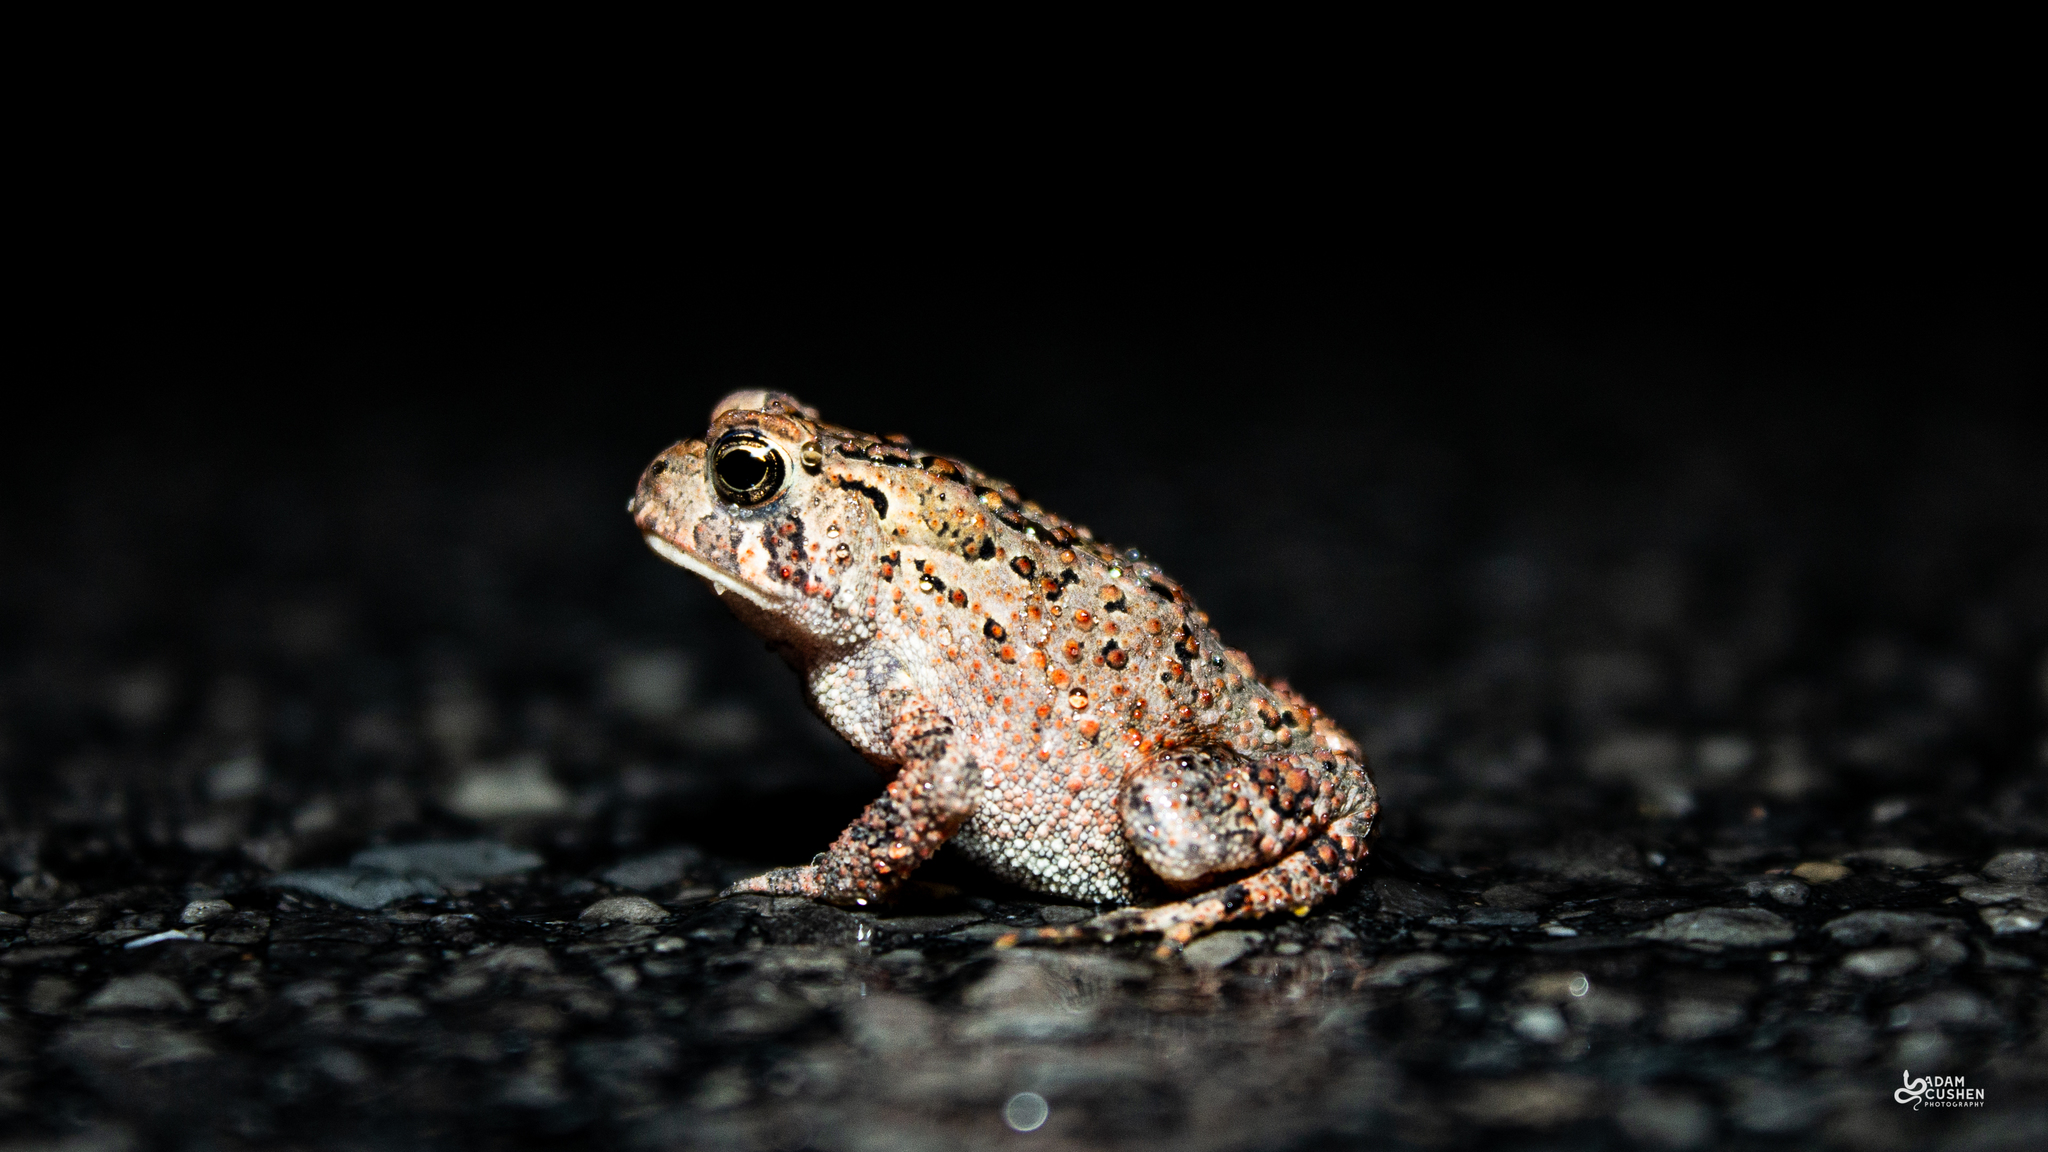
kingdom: Animalia
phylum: Chordata
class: Amphibia
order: Anura
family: Bufonidae
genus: Anaxyrus
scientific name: Anaxyrus americanus
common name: American toad
